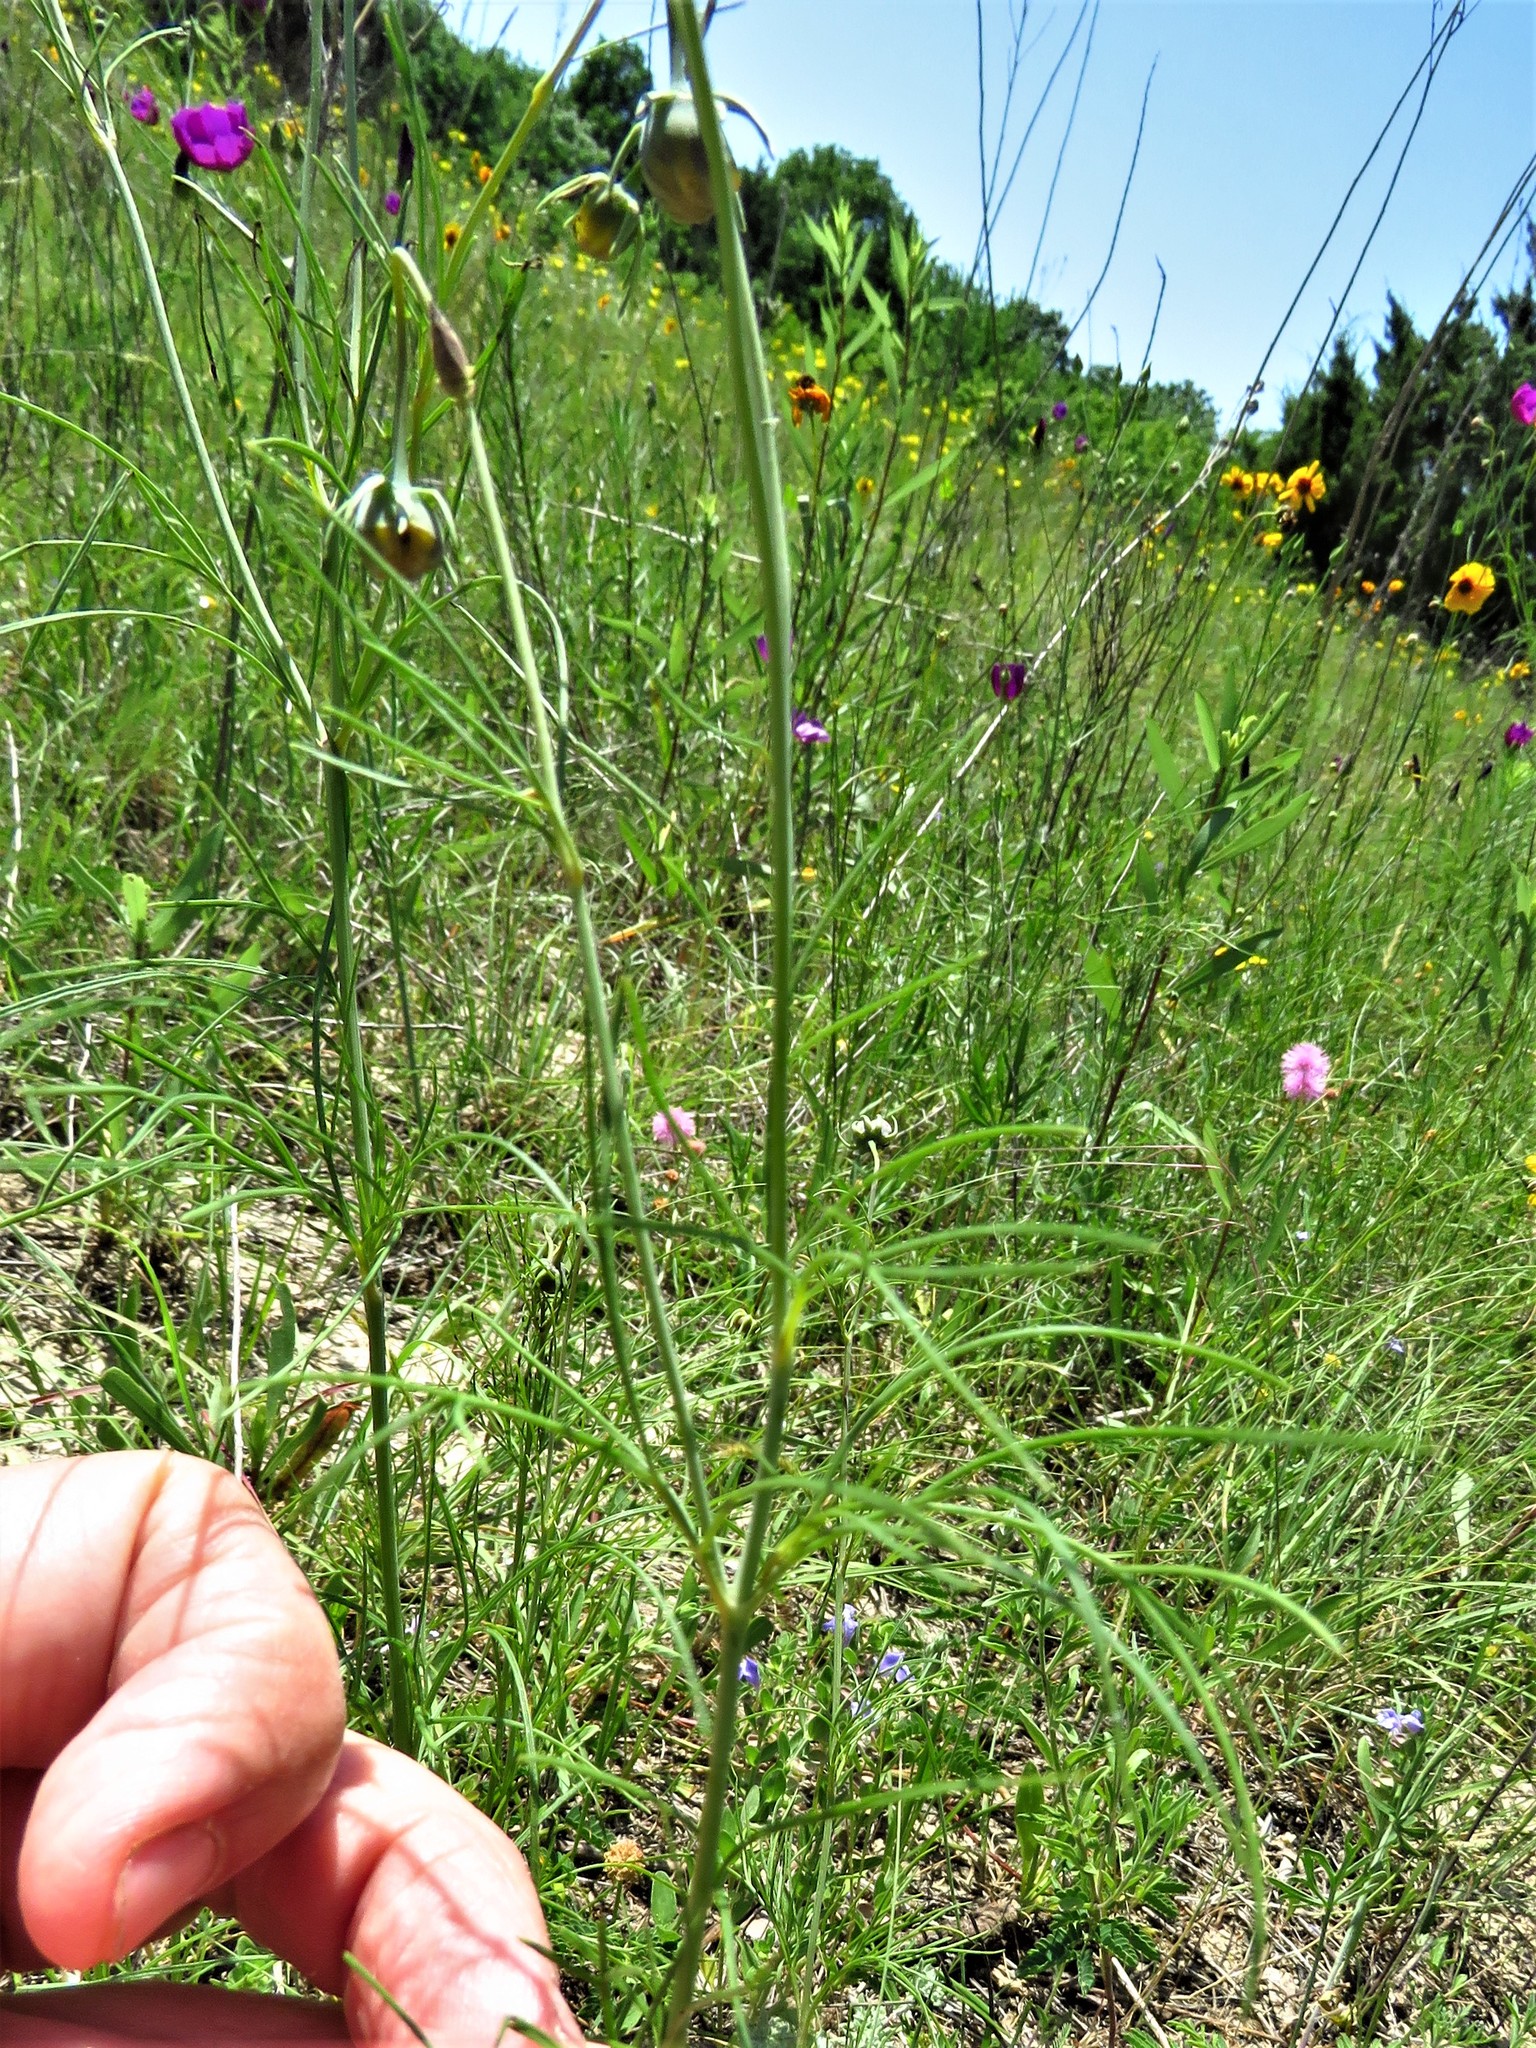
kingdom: Plantae
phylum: Tracheophyta
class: Magnoliopsida
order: Asterales
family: Asteraceae
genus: Thelesperma
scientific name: Thelesperma filifolium
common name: Stiff greenthread
